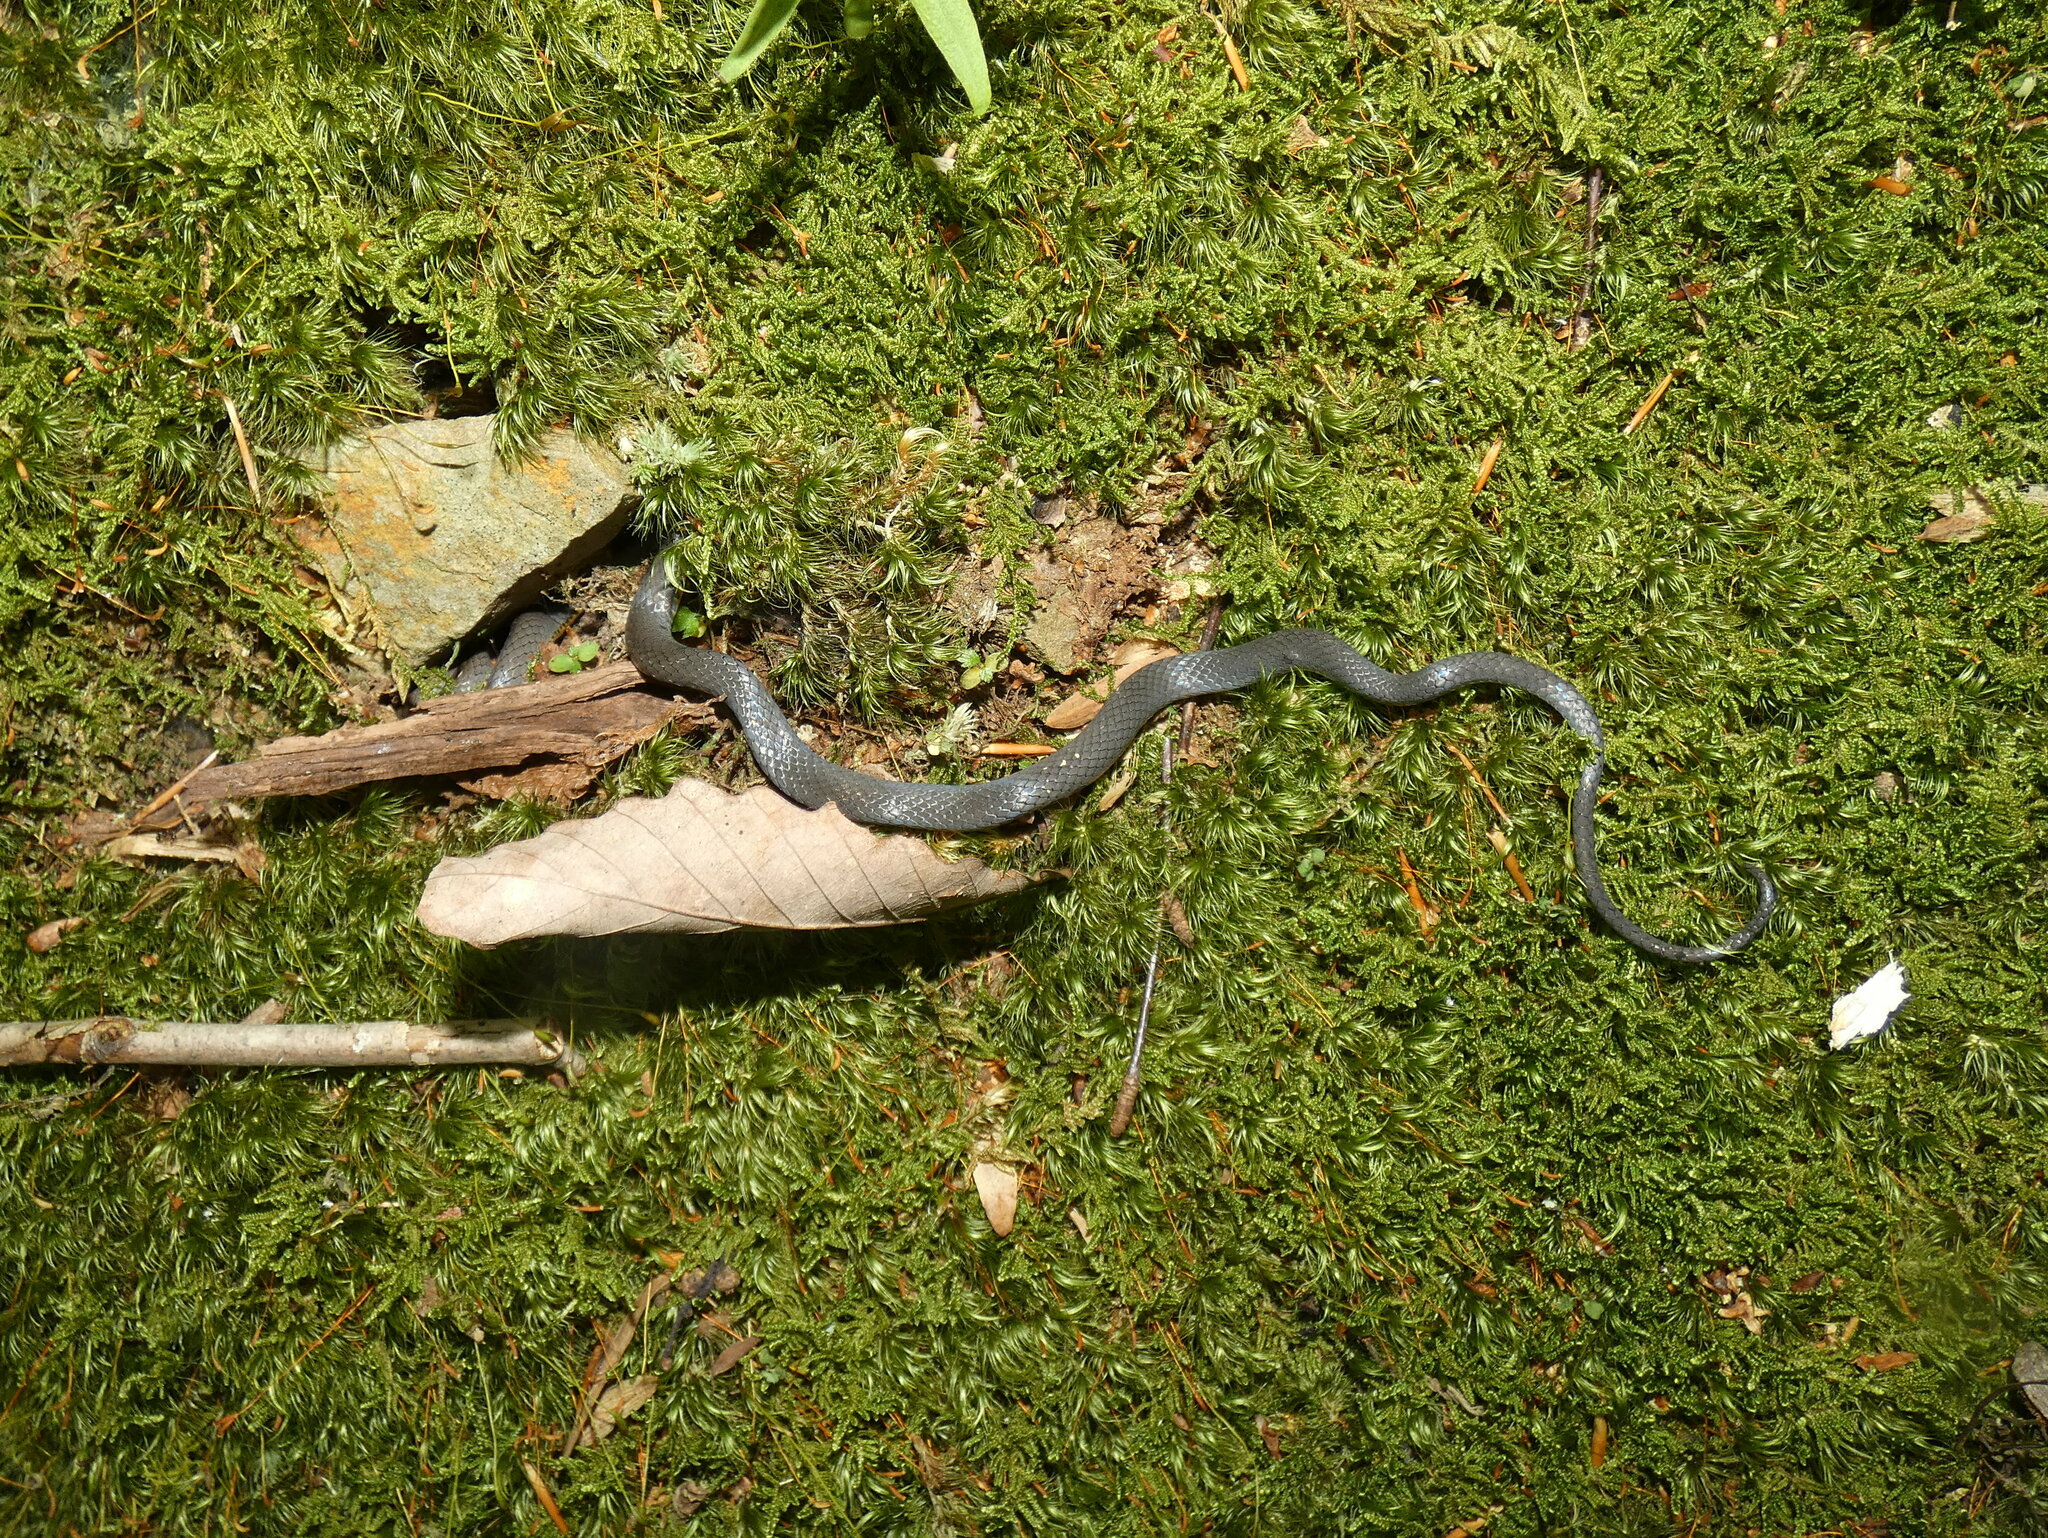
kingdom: Animalia
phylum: Chordata
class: Squamata
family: Colubridae
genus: Diadophis
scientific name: Diadophis punctatus
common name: Ringneck snake
